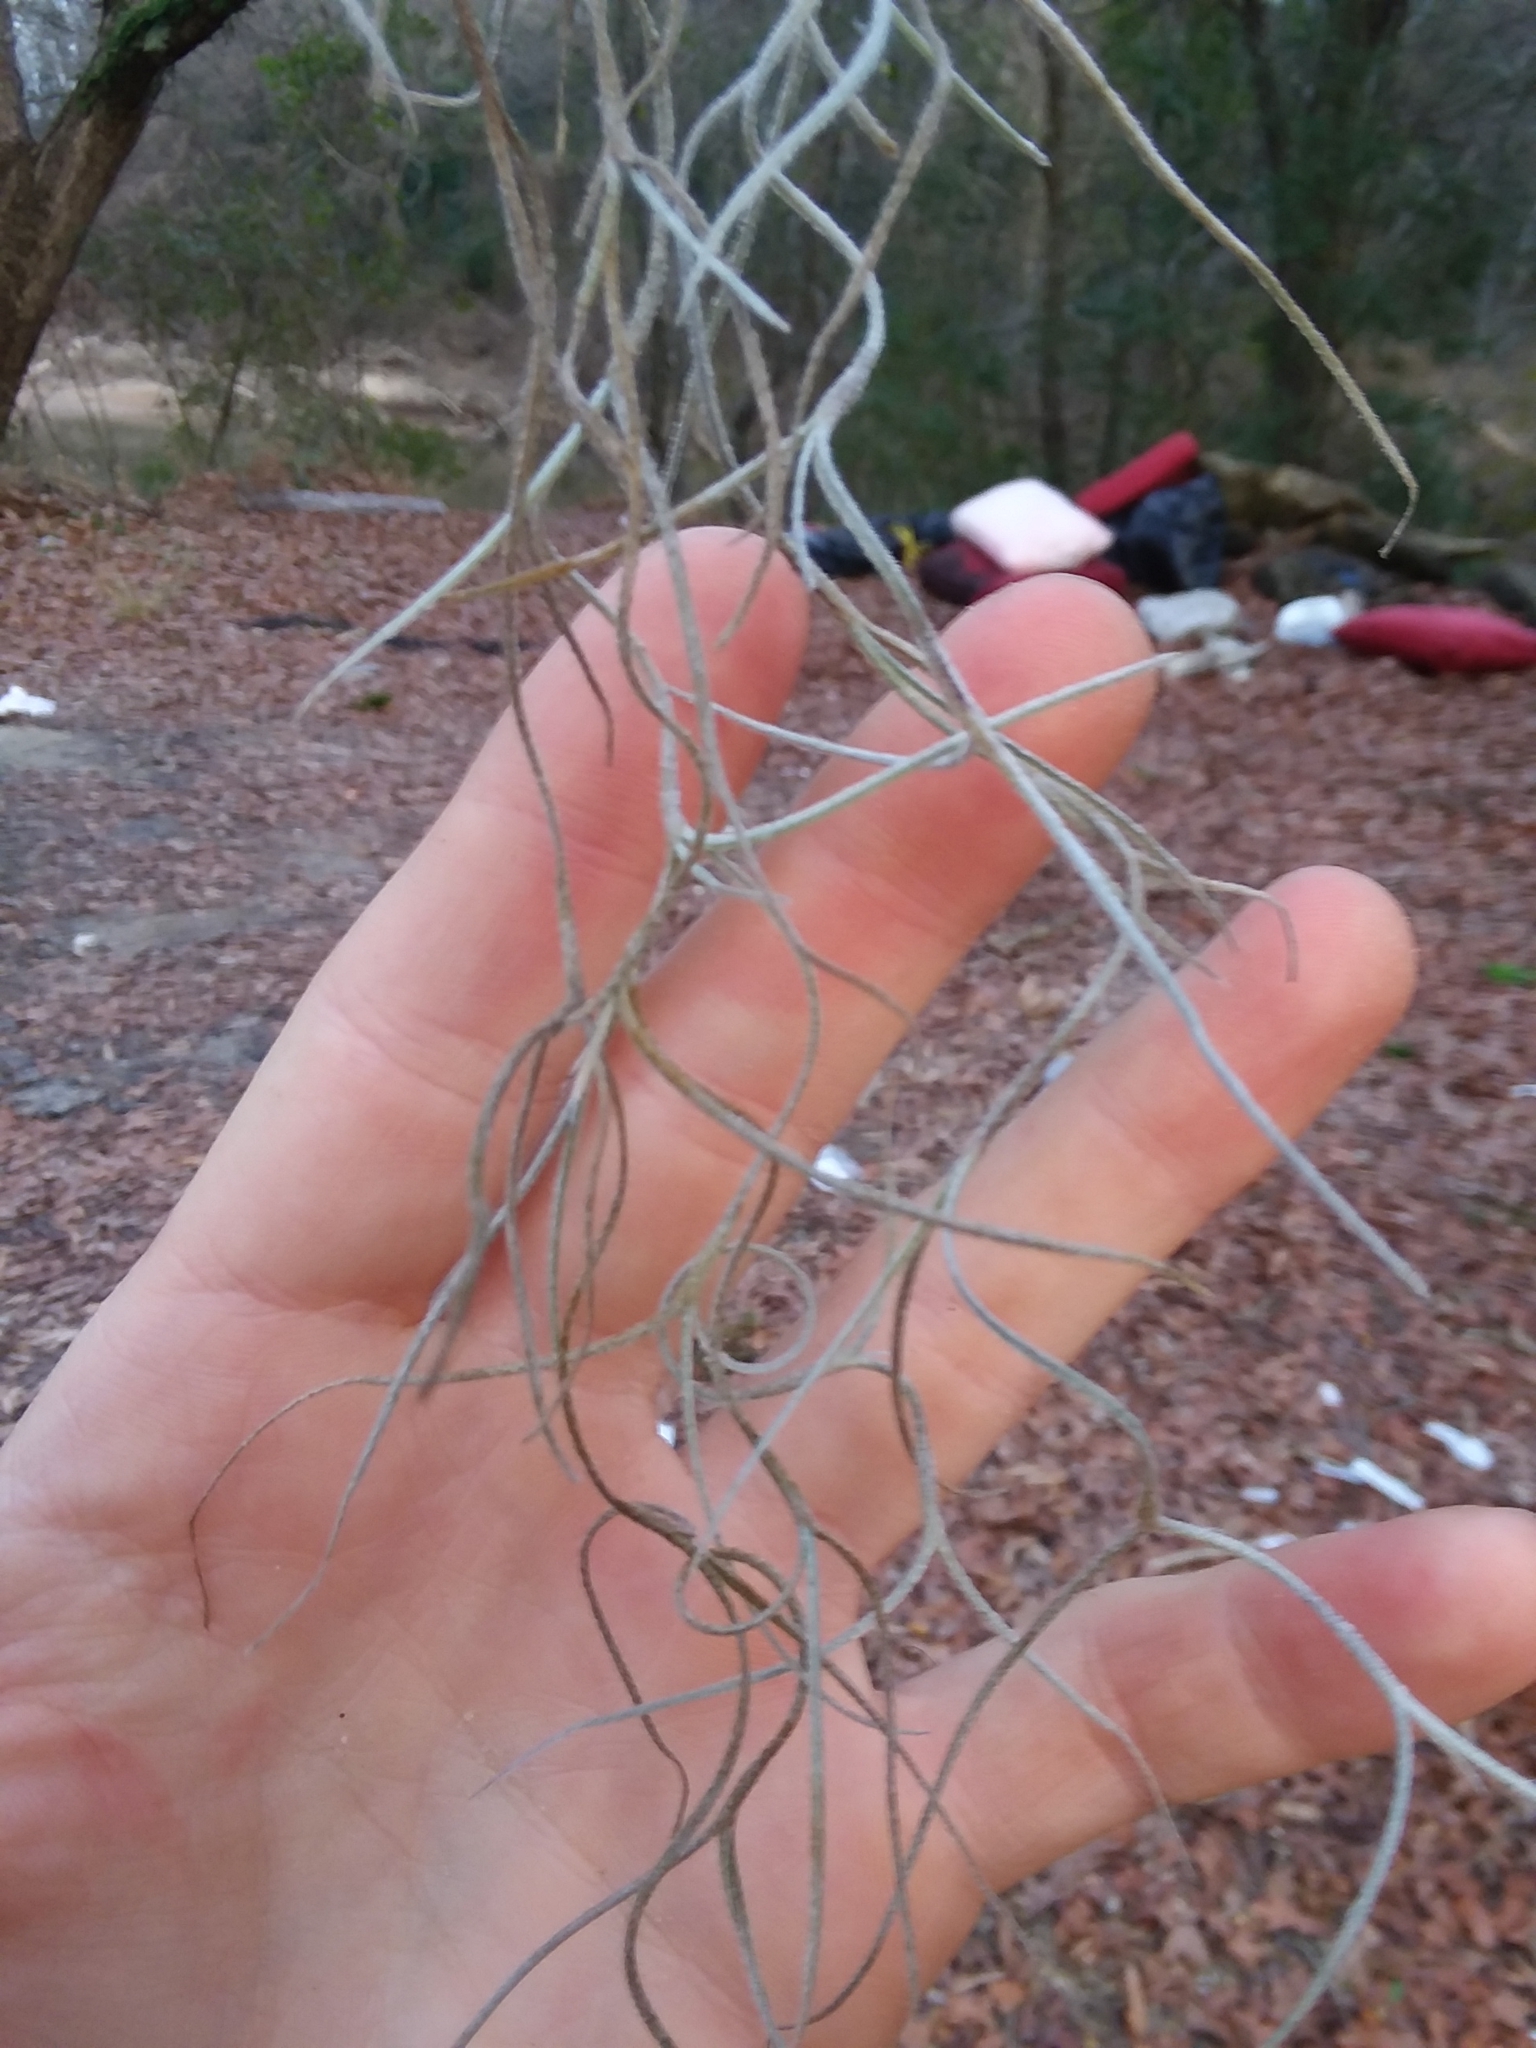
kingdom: Plantae
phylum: Tracheophyta
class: Liliopsida
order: Poales
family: Bromeliaceae
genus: Tillandsia
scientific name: Tillandsia usneoides
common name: Spanish moss
